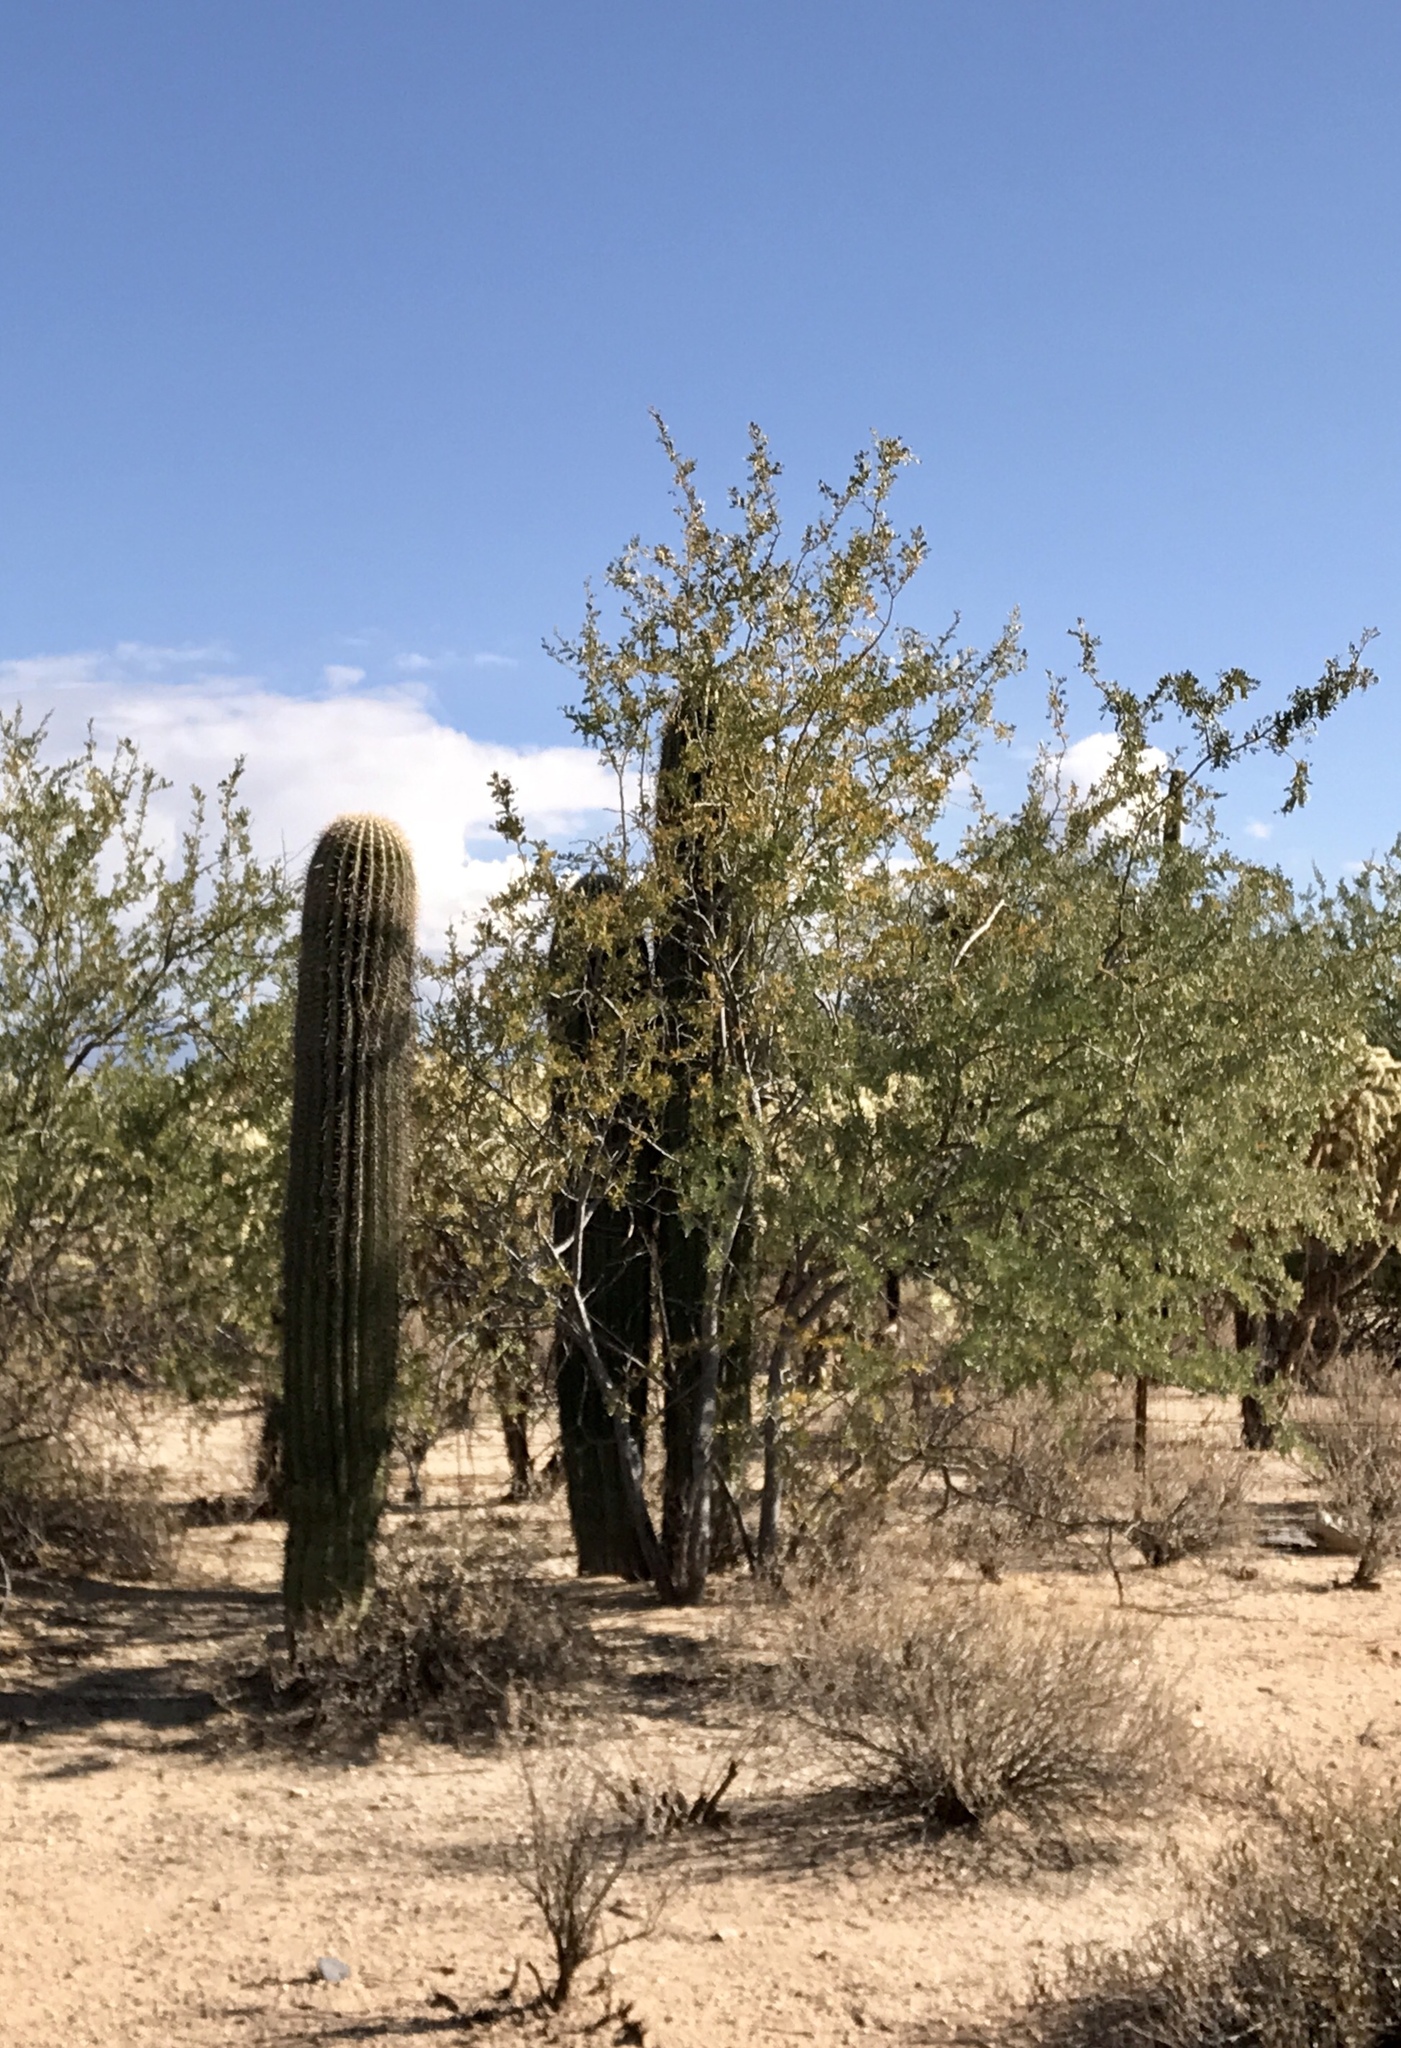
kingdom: Plantae
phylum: Tracheophyta
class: Magnoliopsida
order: Caryophyllales
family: Cactaceae
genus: Carnegiea
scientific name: Carnegiea gigantea
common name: Saguaro
